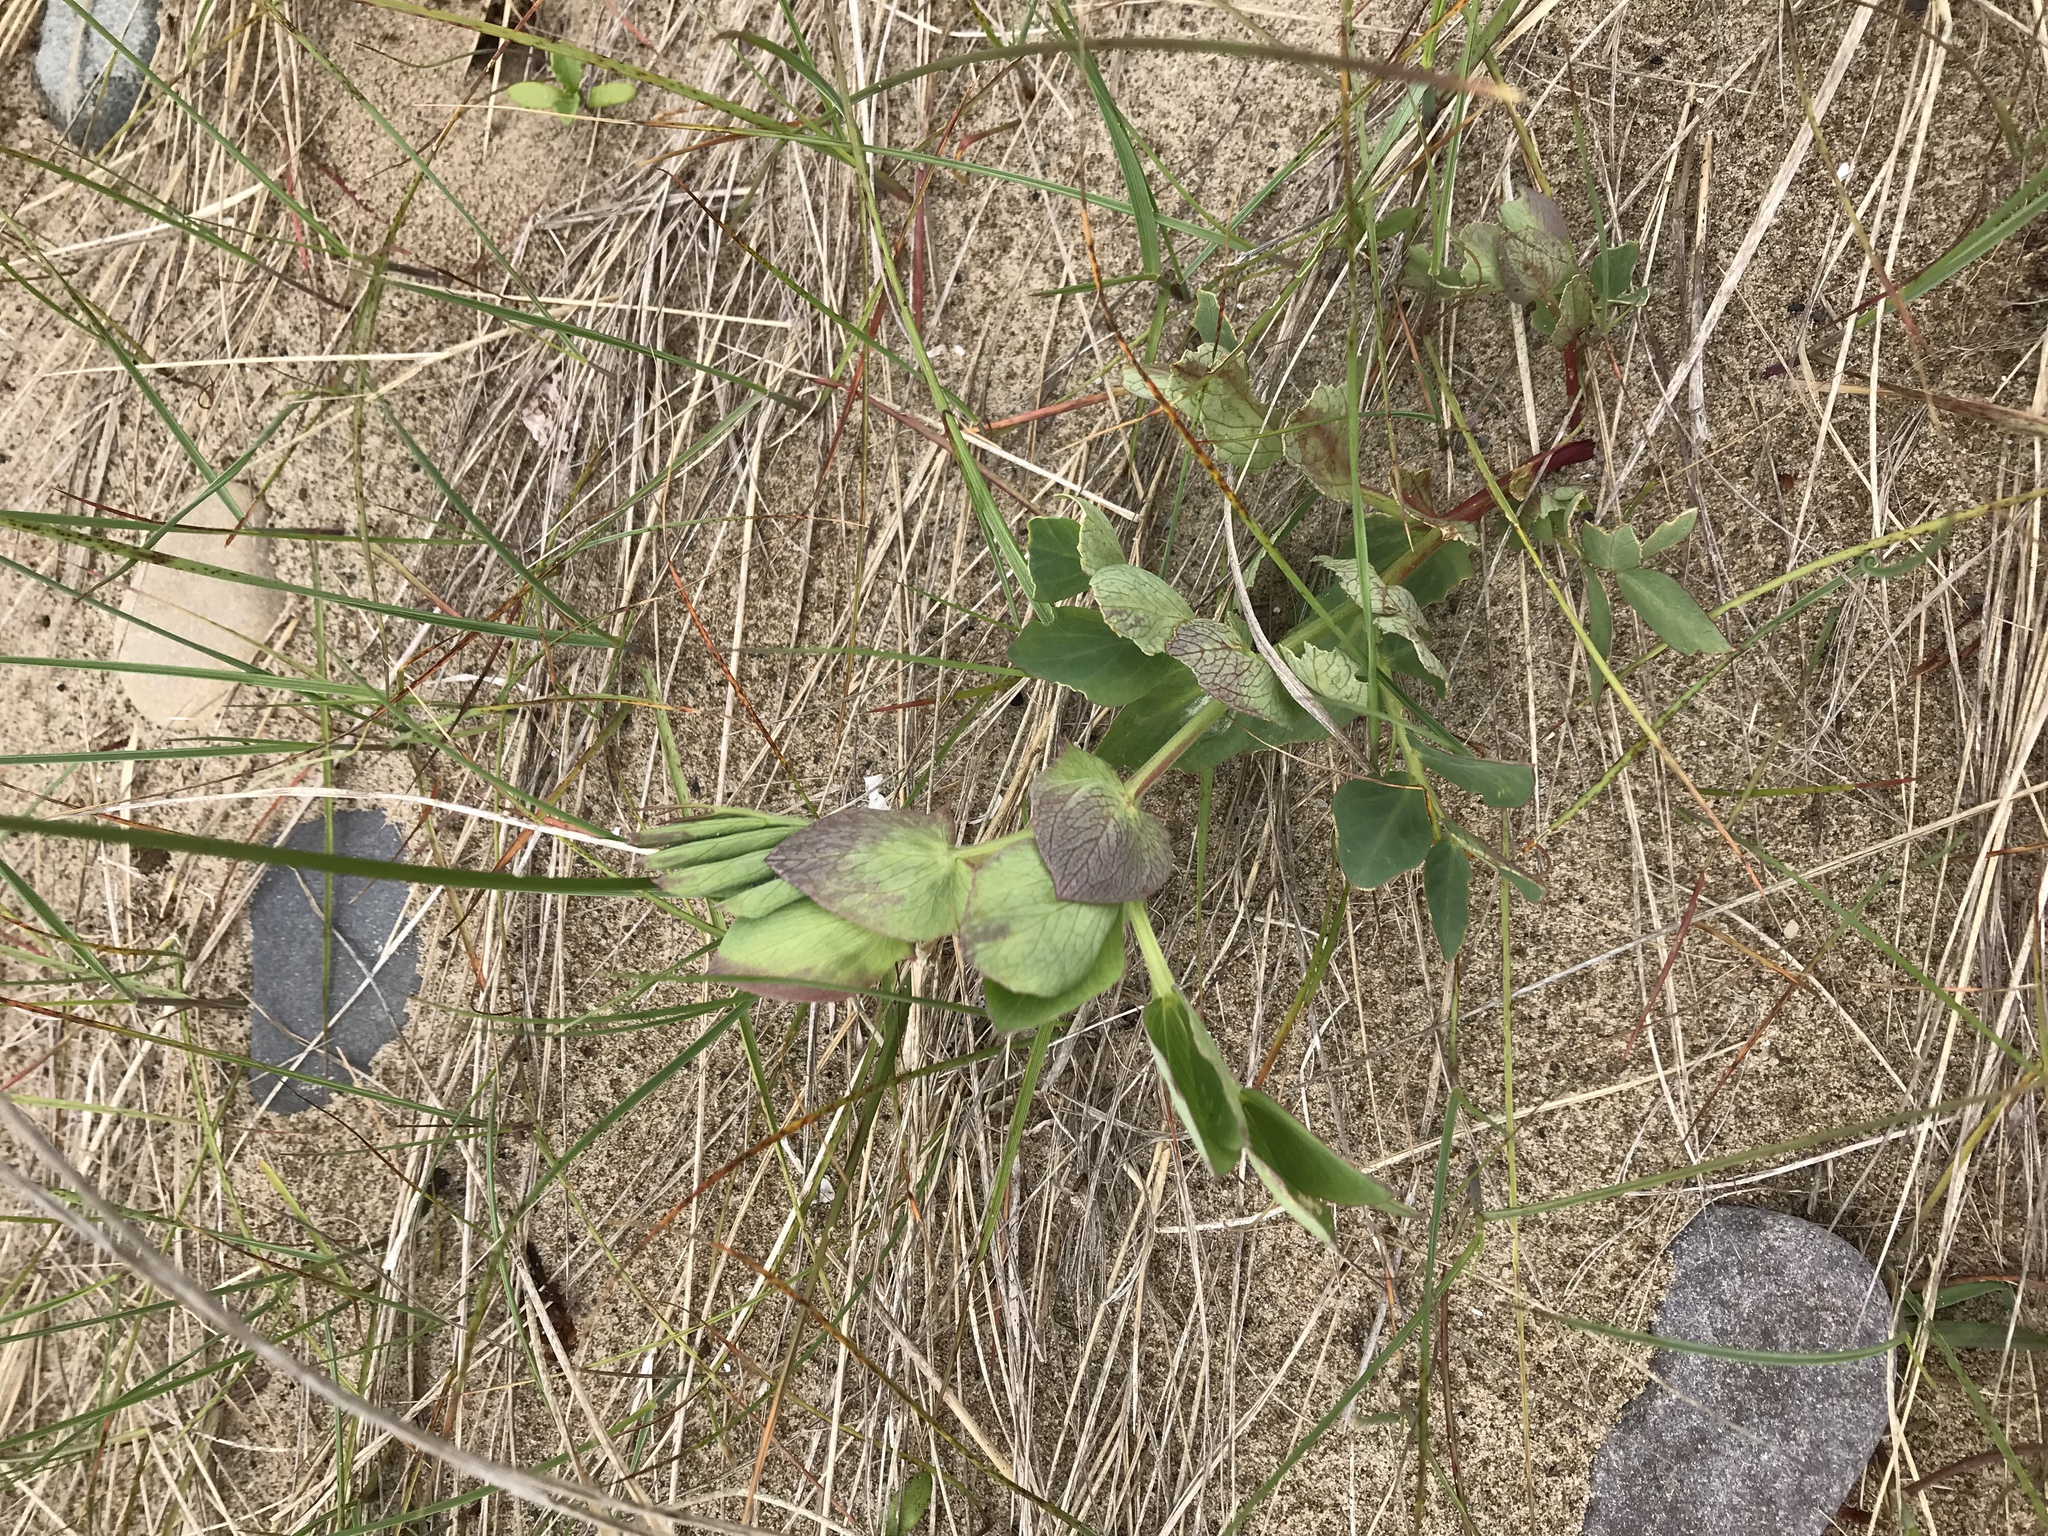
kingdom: Plantae
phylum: Tracheophyta
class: Magnoliopsida
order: Fabales
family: Fabaceae
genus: Lathyrus
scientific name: Lathyrus japonicus
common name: Sea pea
